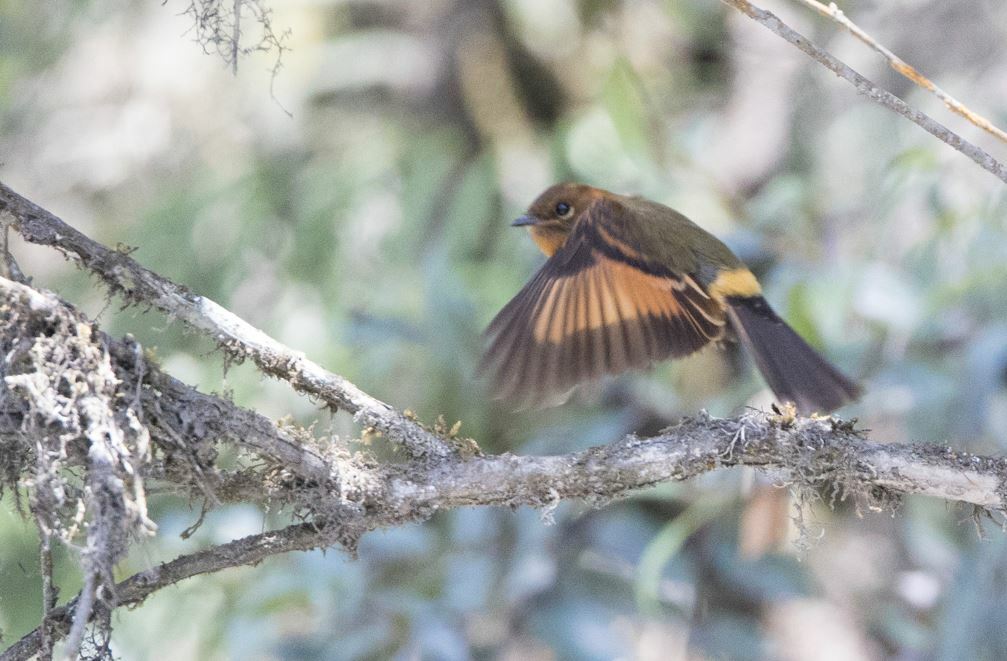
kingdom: Animalia
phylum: Chordata
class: Aves
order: Passeriformes
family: Tyrannidae
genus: Pyrrhomyias
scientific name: Pyrrhomyias cinnamomeus
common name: Cinnamon flycatcher
